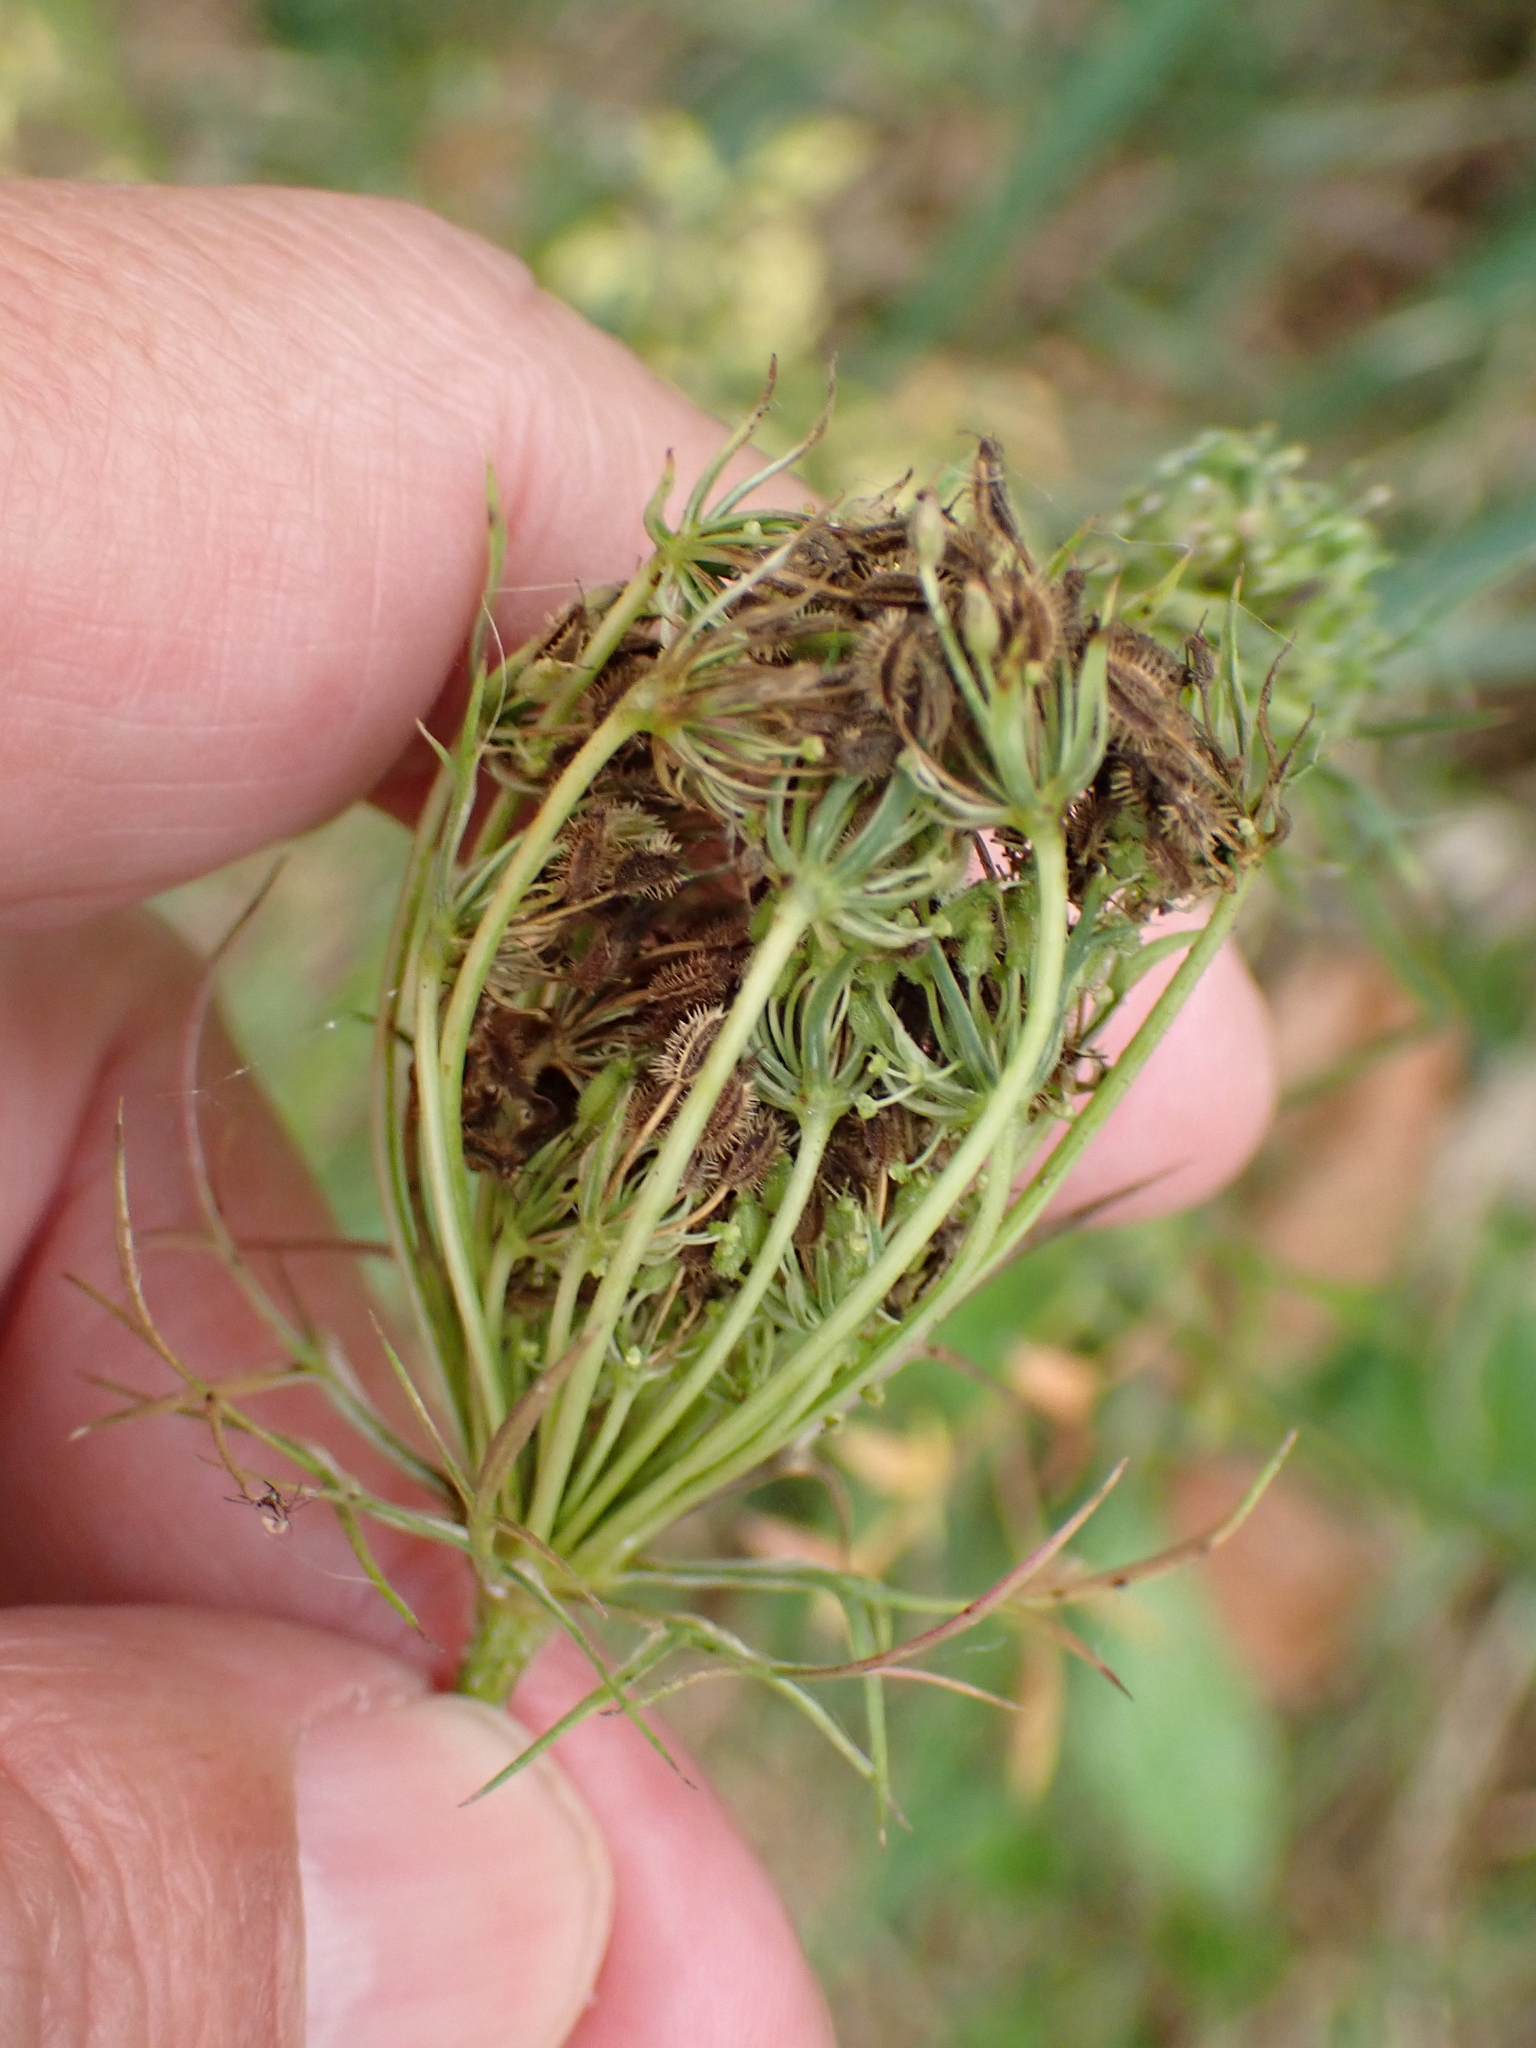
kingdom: Plantae
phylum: Tracheophyta
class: Magnoliopsida
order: Apiales
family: Apiaceae
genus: Daucus
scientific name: Daucus carota
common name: Wild carrot
